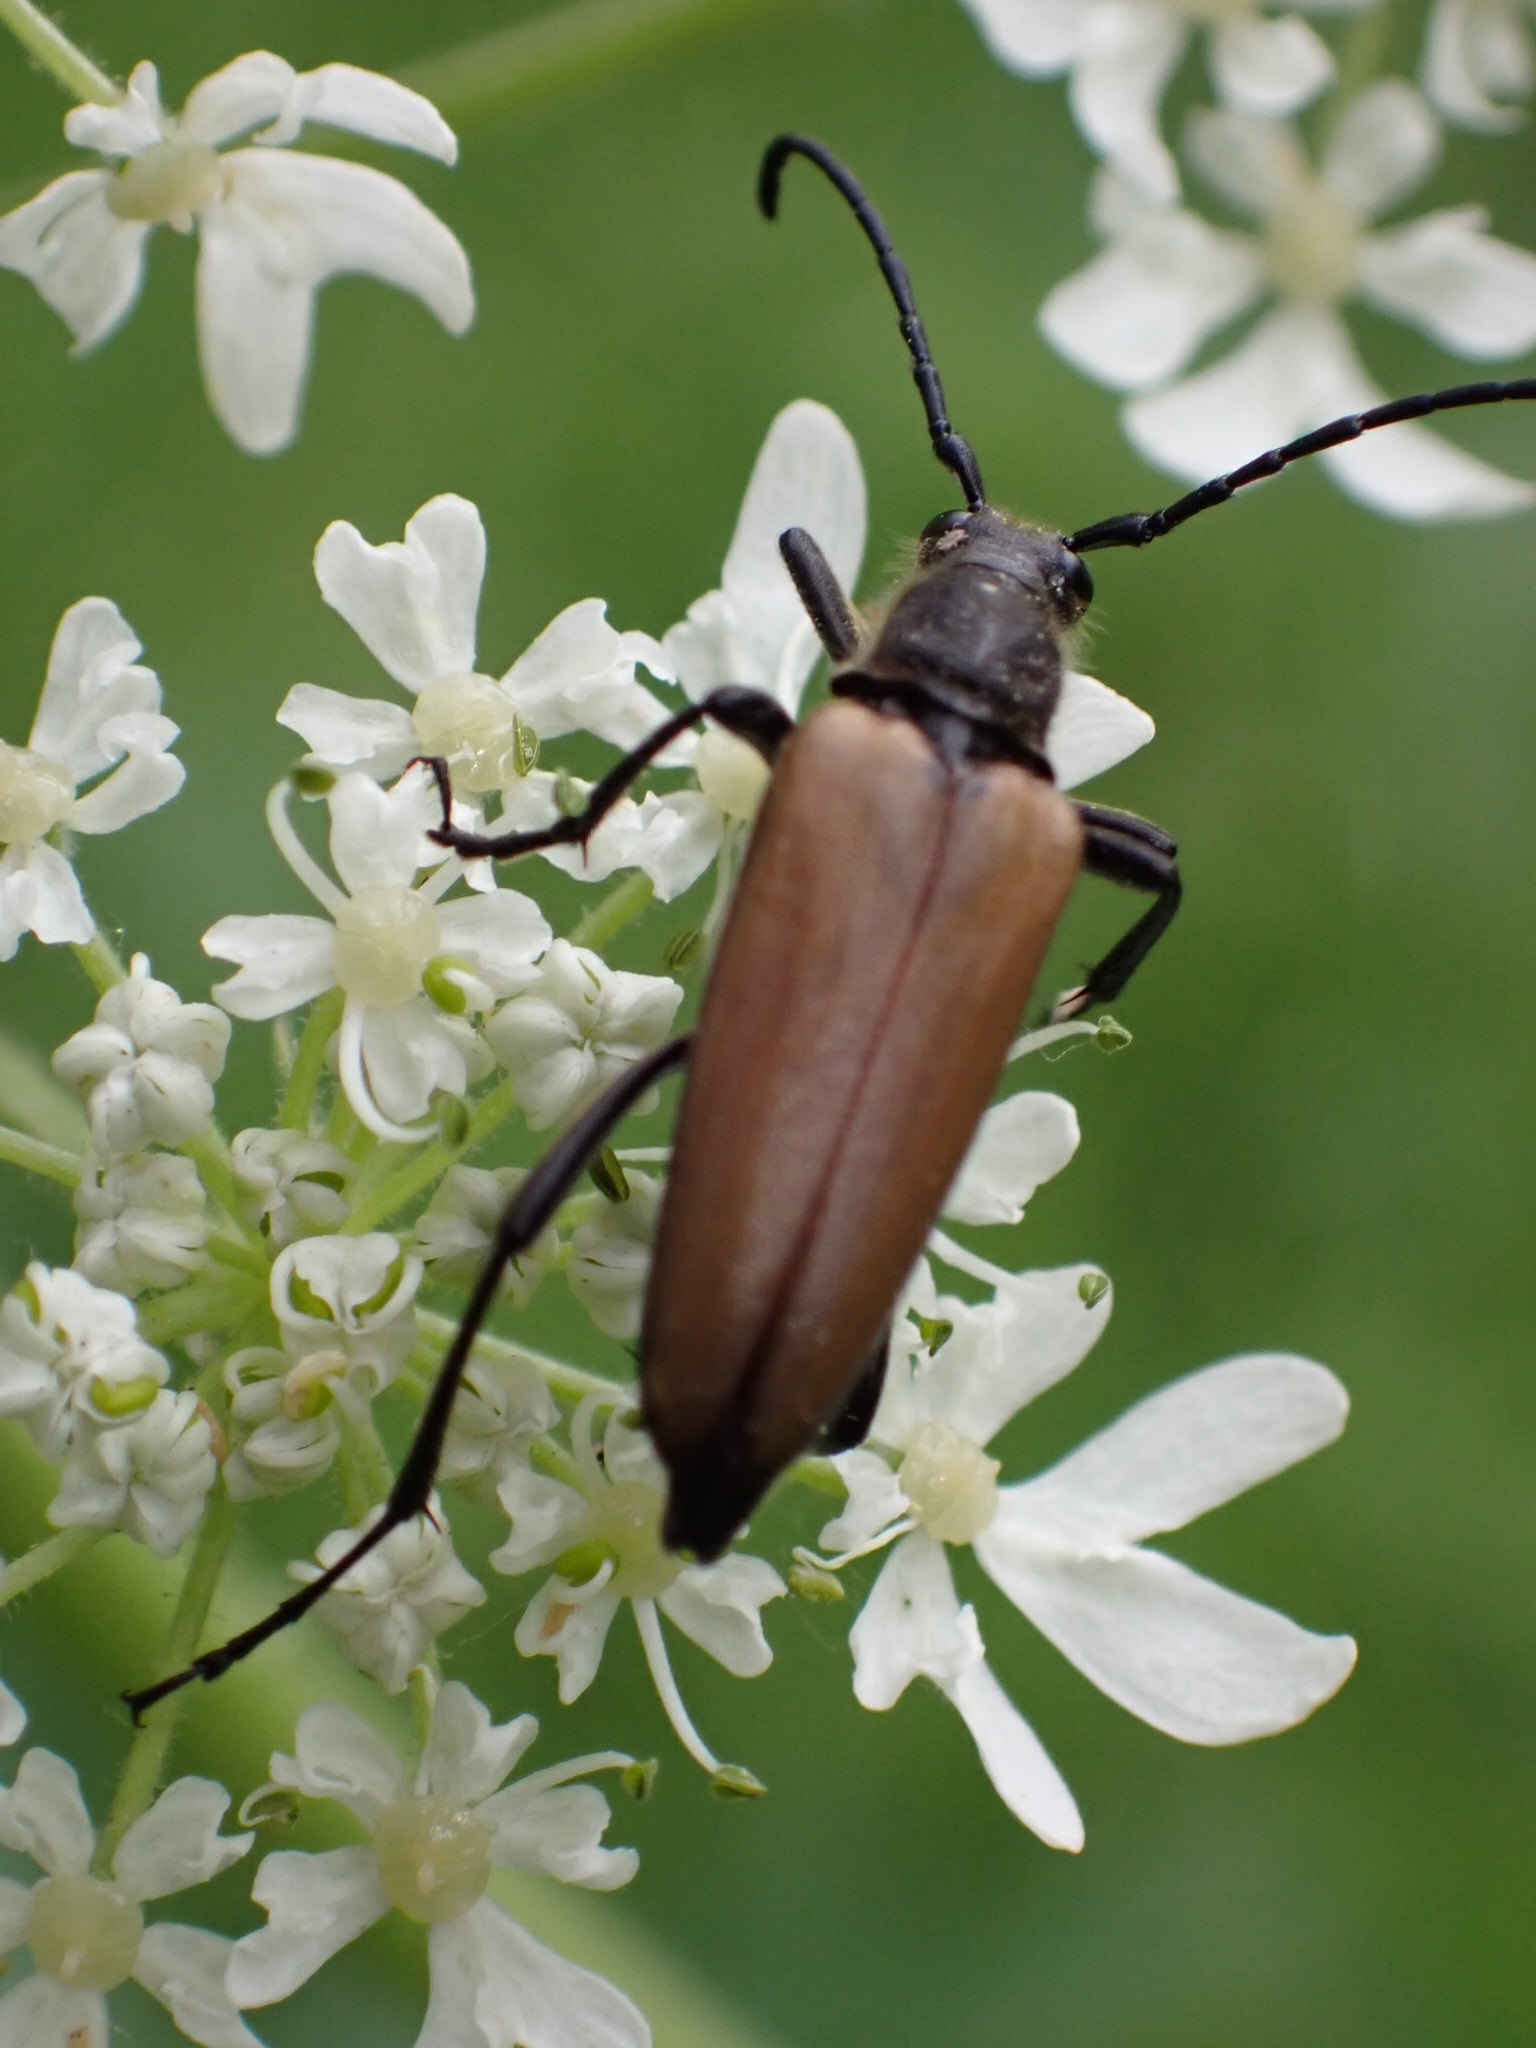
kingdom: Animalia
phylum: Arthropoda
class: Insecta
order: Coleoptera
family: Cerambycidae
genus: Lepturalia
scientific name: Lepturalia nigripes
